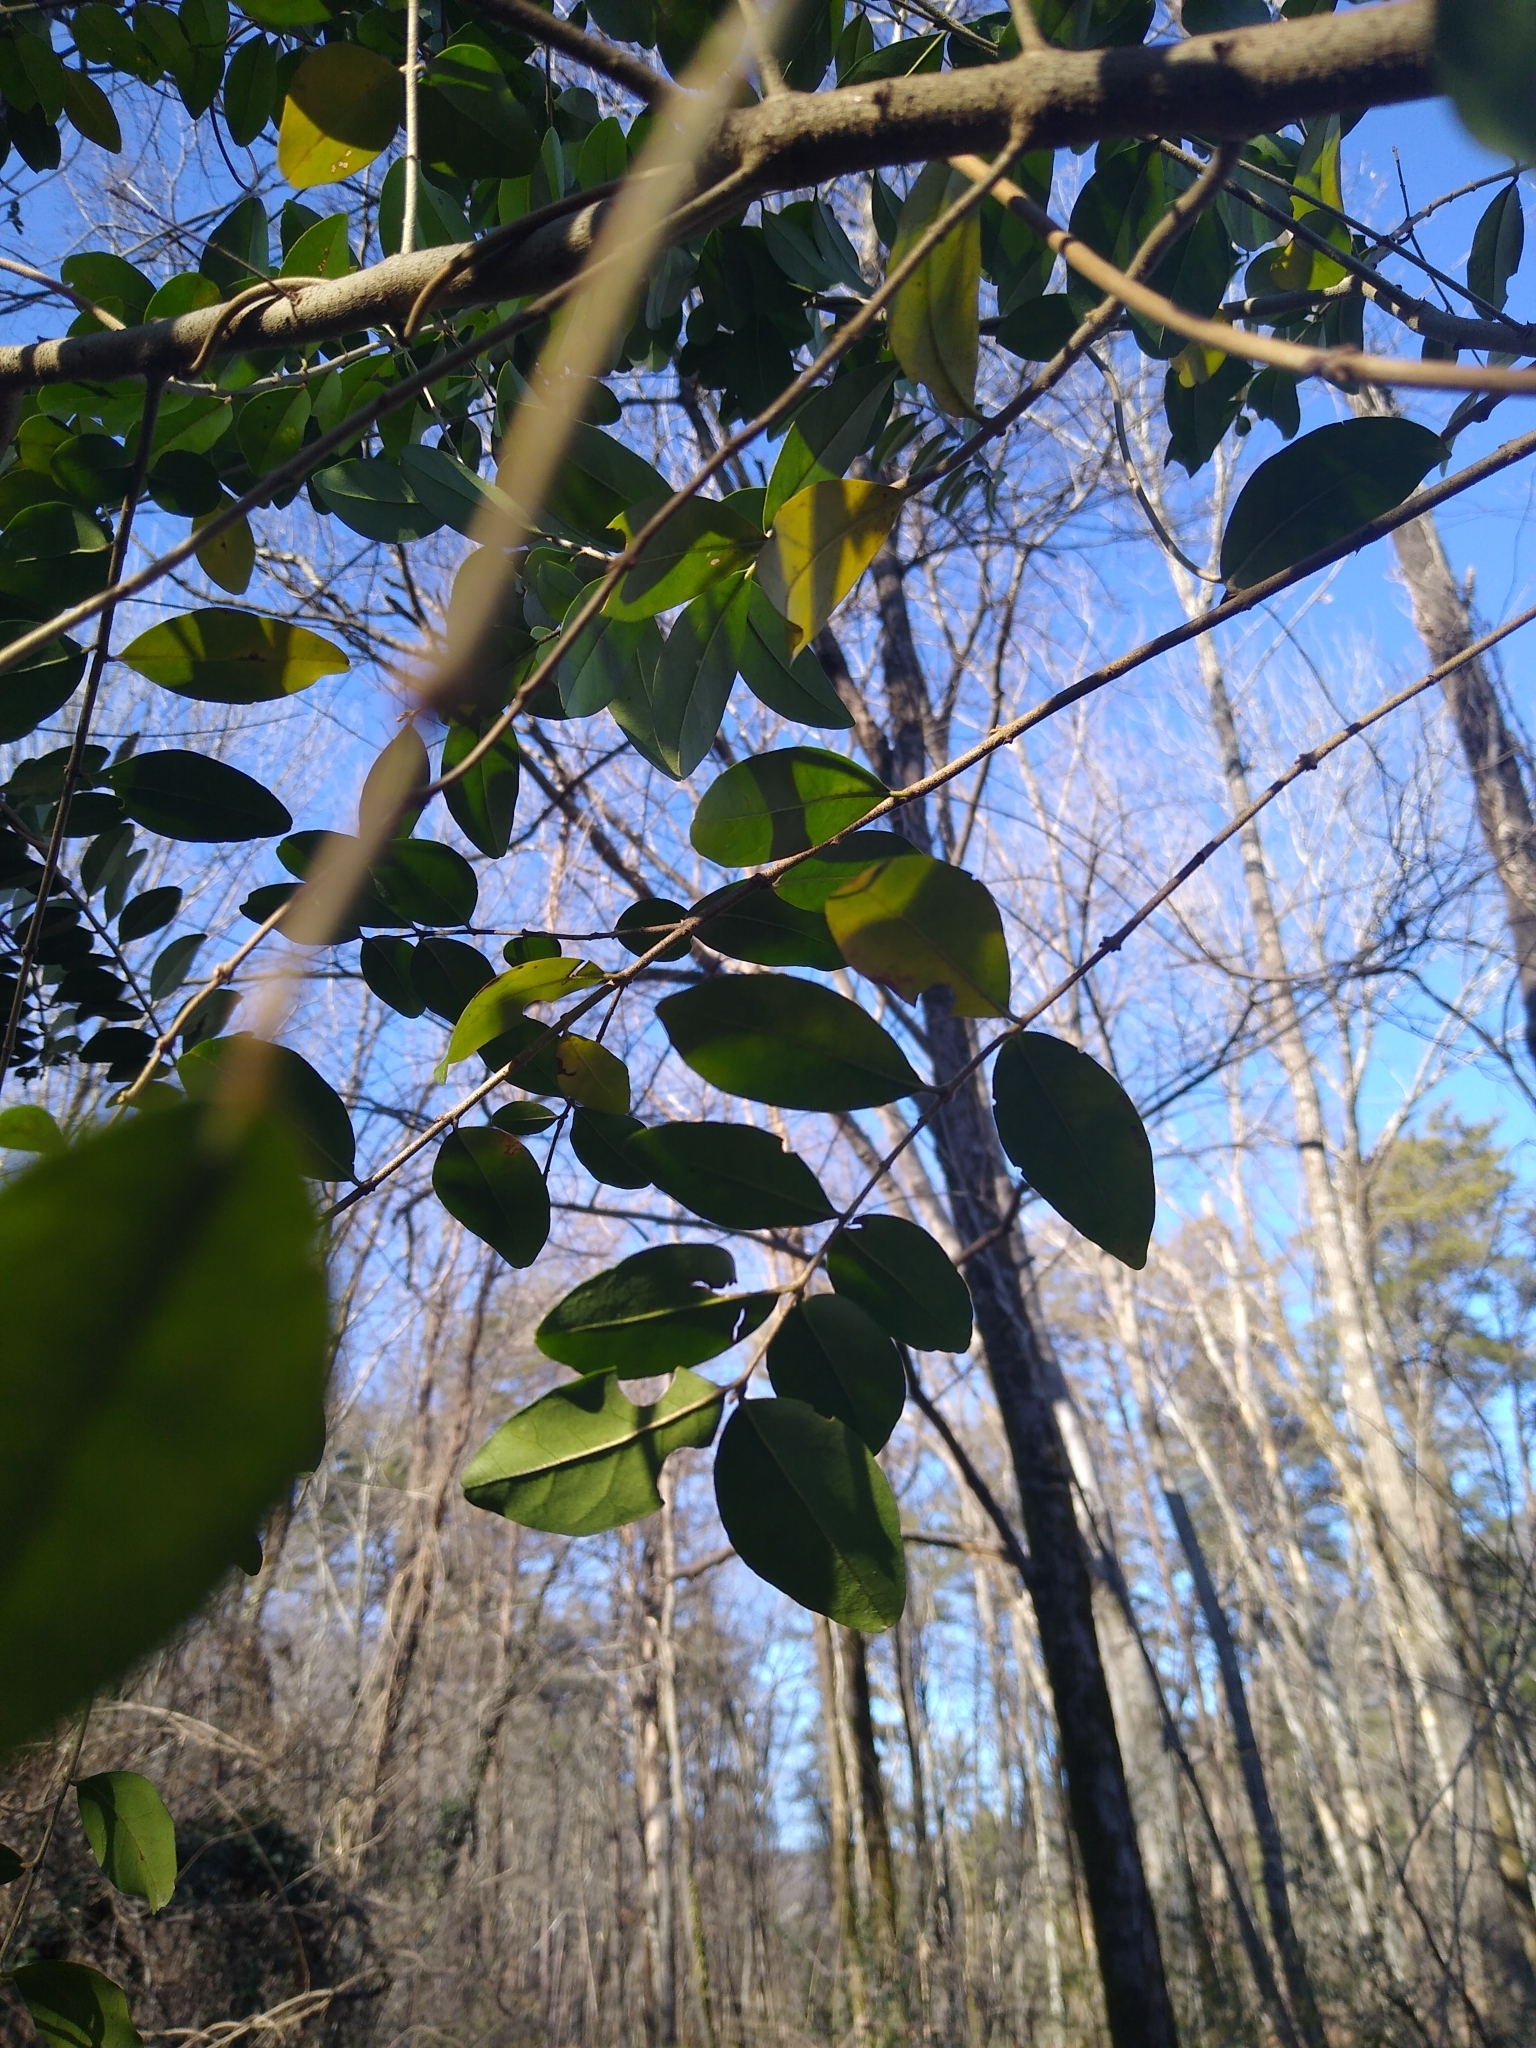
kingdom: Plantae
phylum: Tracheophyta
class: Magnoliopsida
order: Lamiales
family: Oleaceae
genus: Ligustrum
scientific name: Ligustrum sinense
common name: Chinese privet
